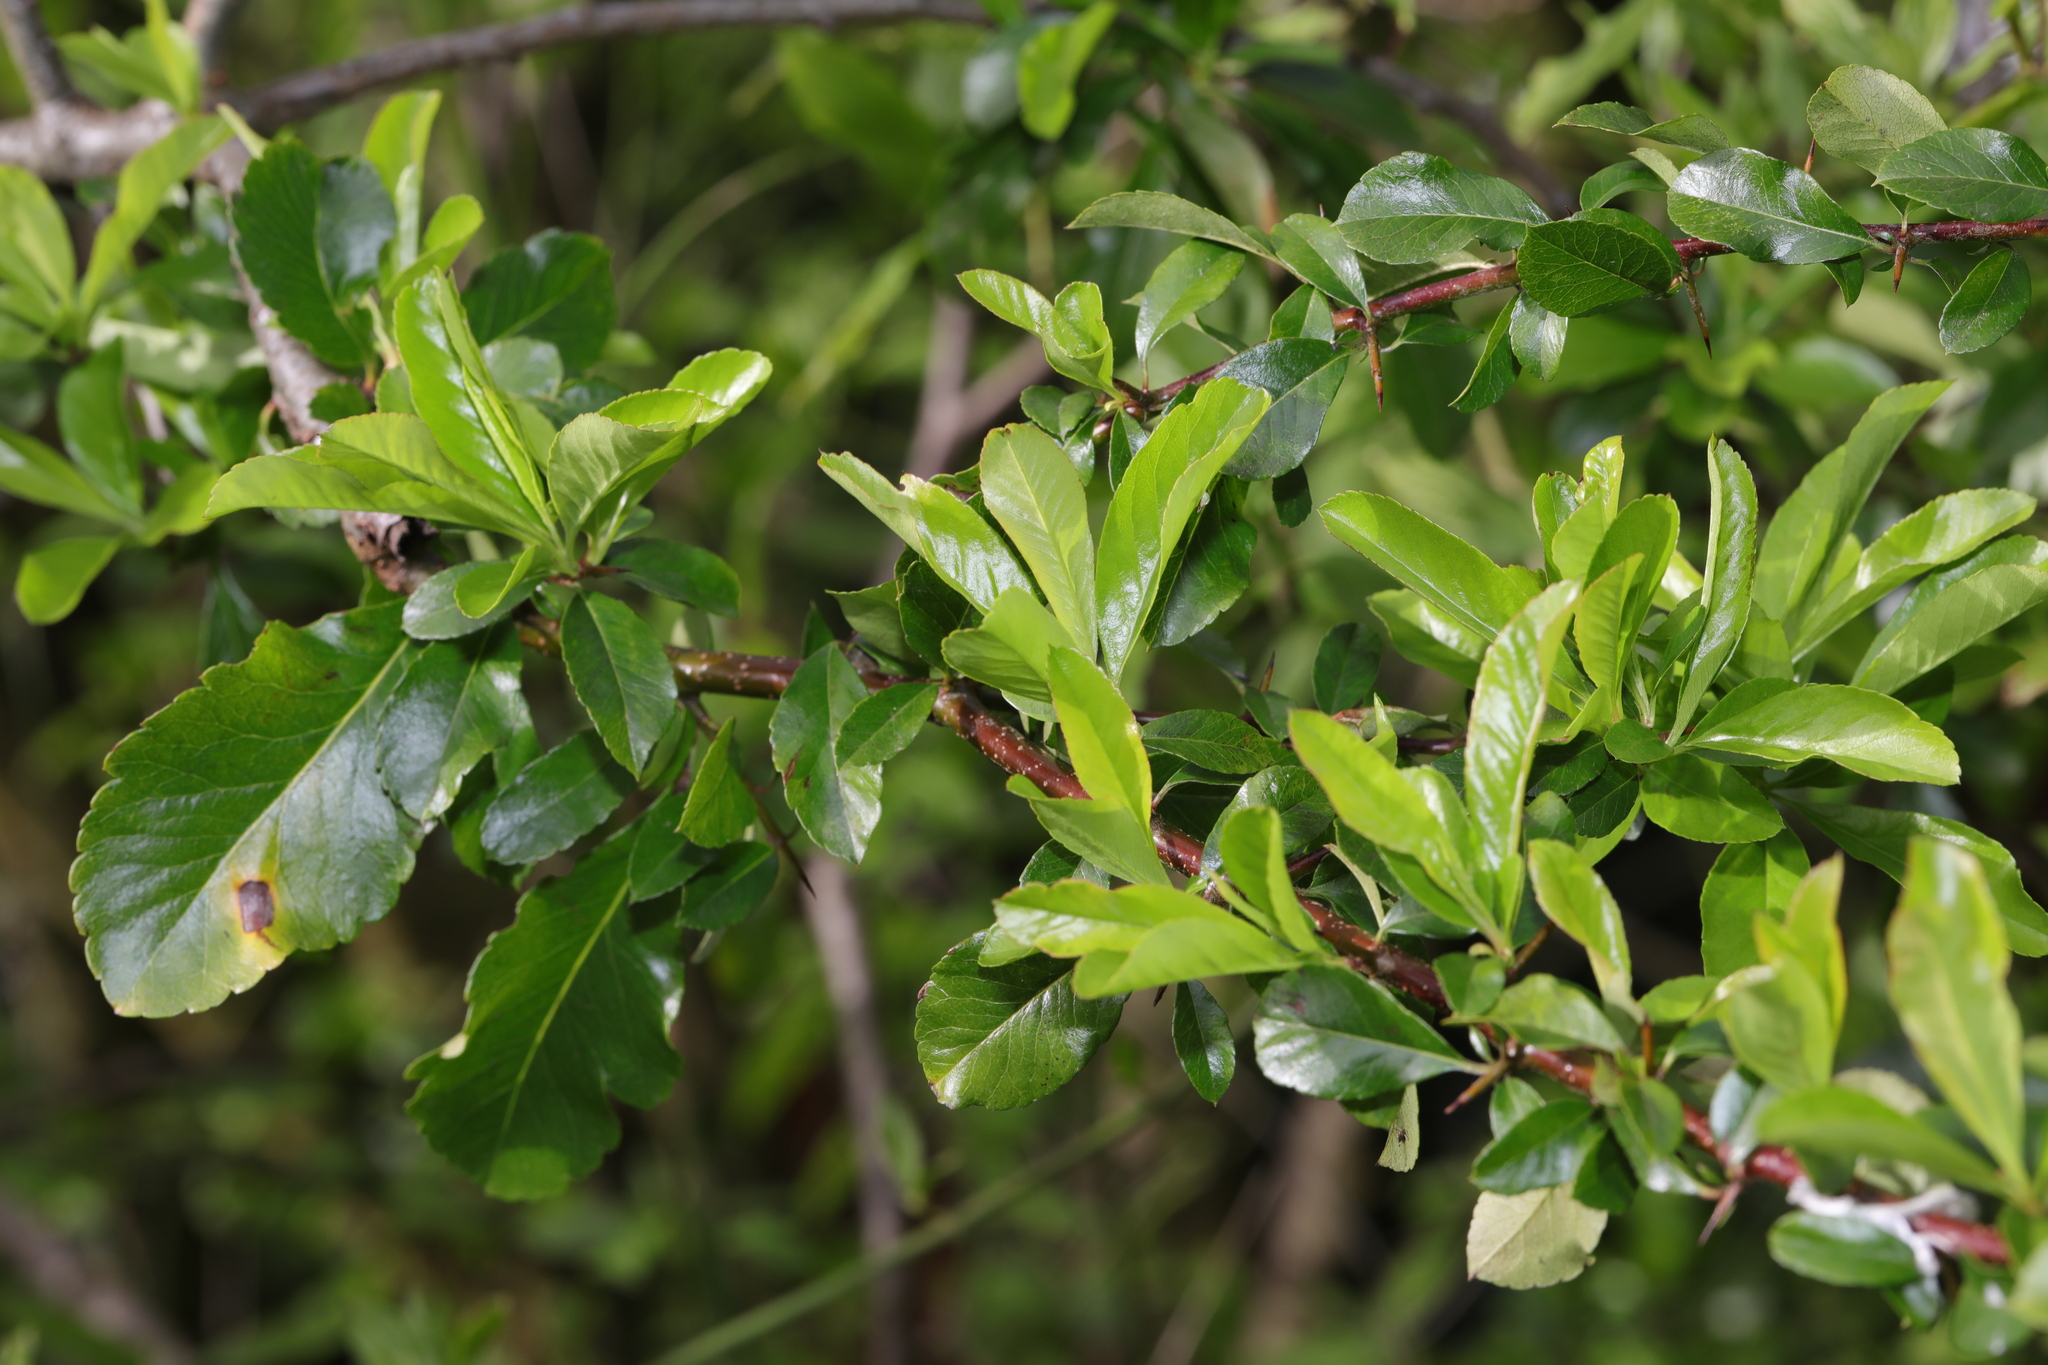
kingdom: Plantae
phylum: Tracheophyta
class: Magnoliopsida
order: Rosales
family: Rosaceae
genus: Pyracantha
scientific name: Pyracantha coccinea
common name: Firethorn
